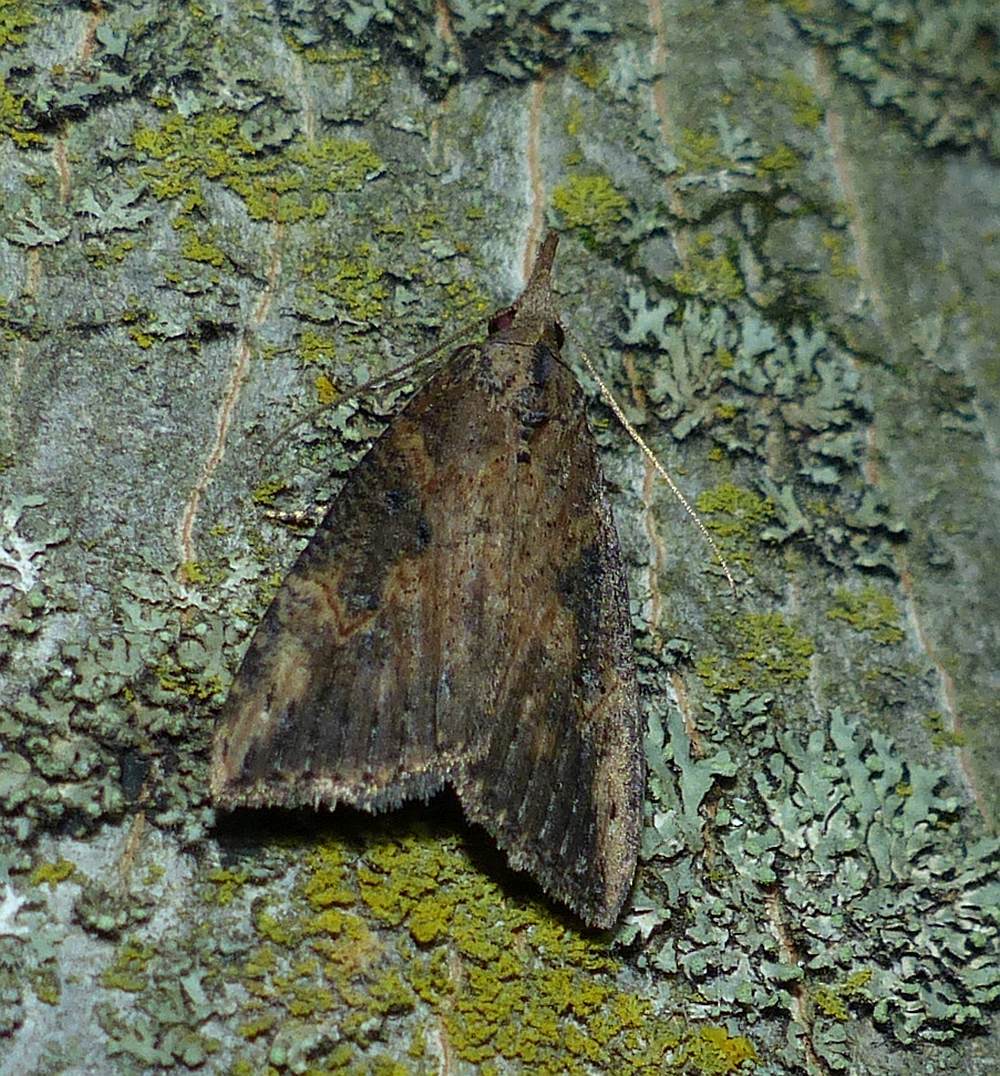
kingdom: Animalia
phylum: Arthropoda
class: Insecta
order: Lepidoptera
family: Erebidae
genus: Hypena
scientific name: Hypena scabra
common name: Green cloverworm
